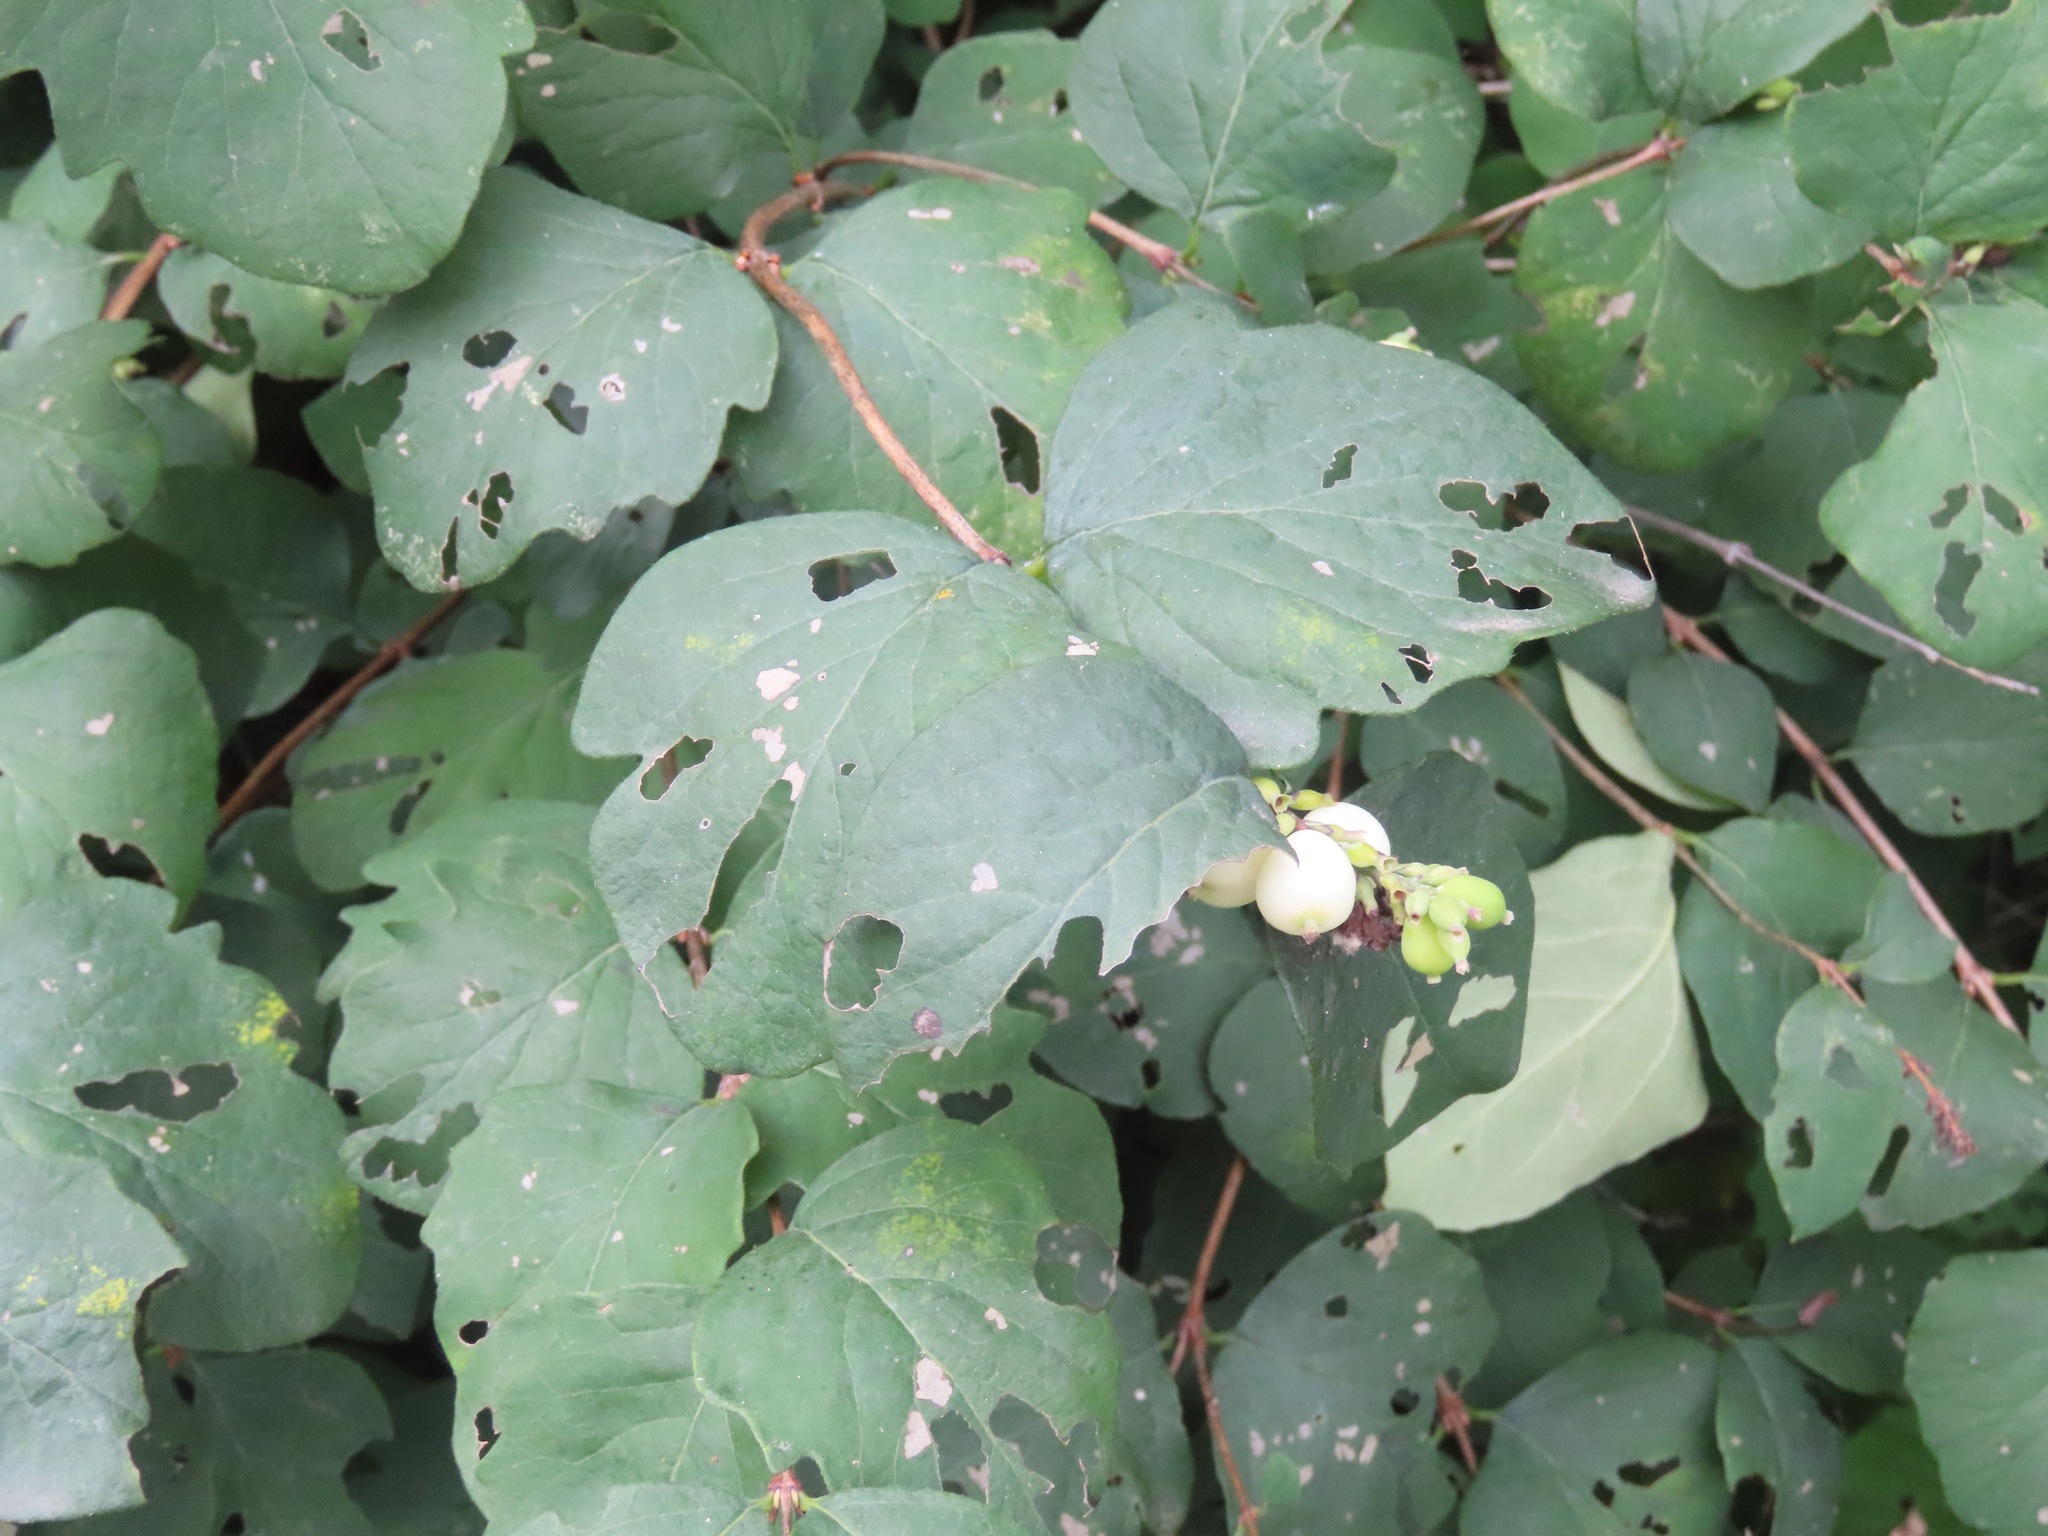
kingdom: Plantae
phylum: Tracheophyta
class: Magnoliopsida
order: Dipsacales
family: Caprifoliaceae
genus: Symphoricarpos
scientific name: Symphoricarpos albus
